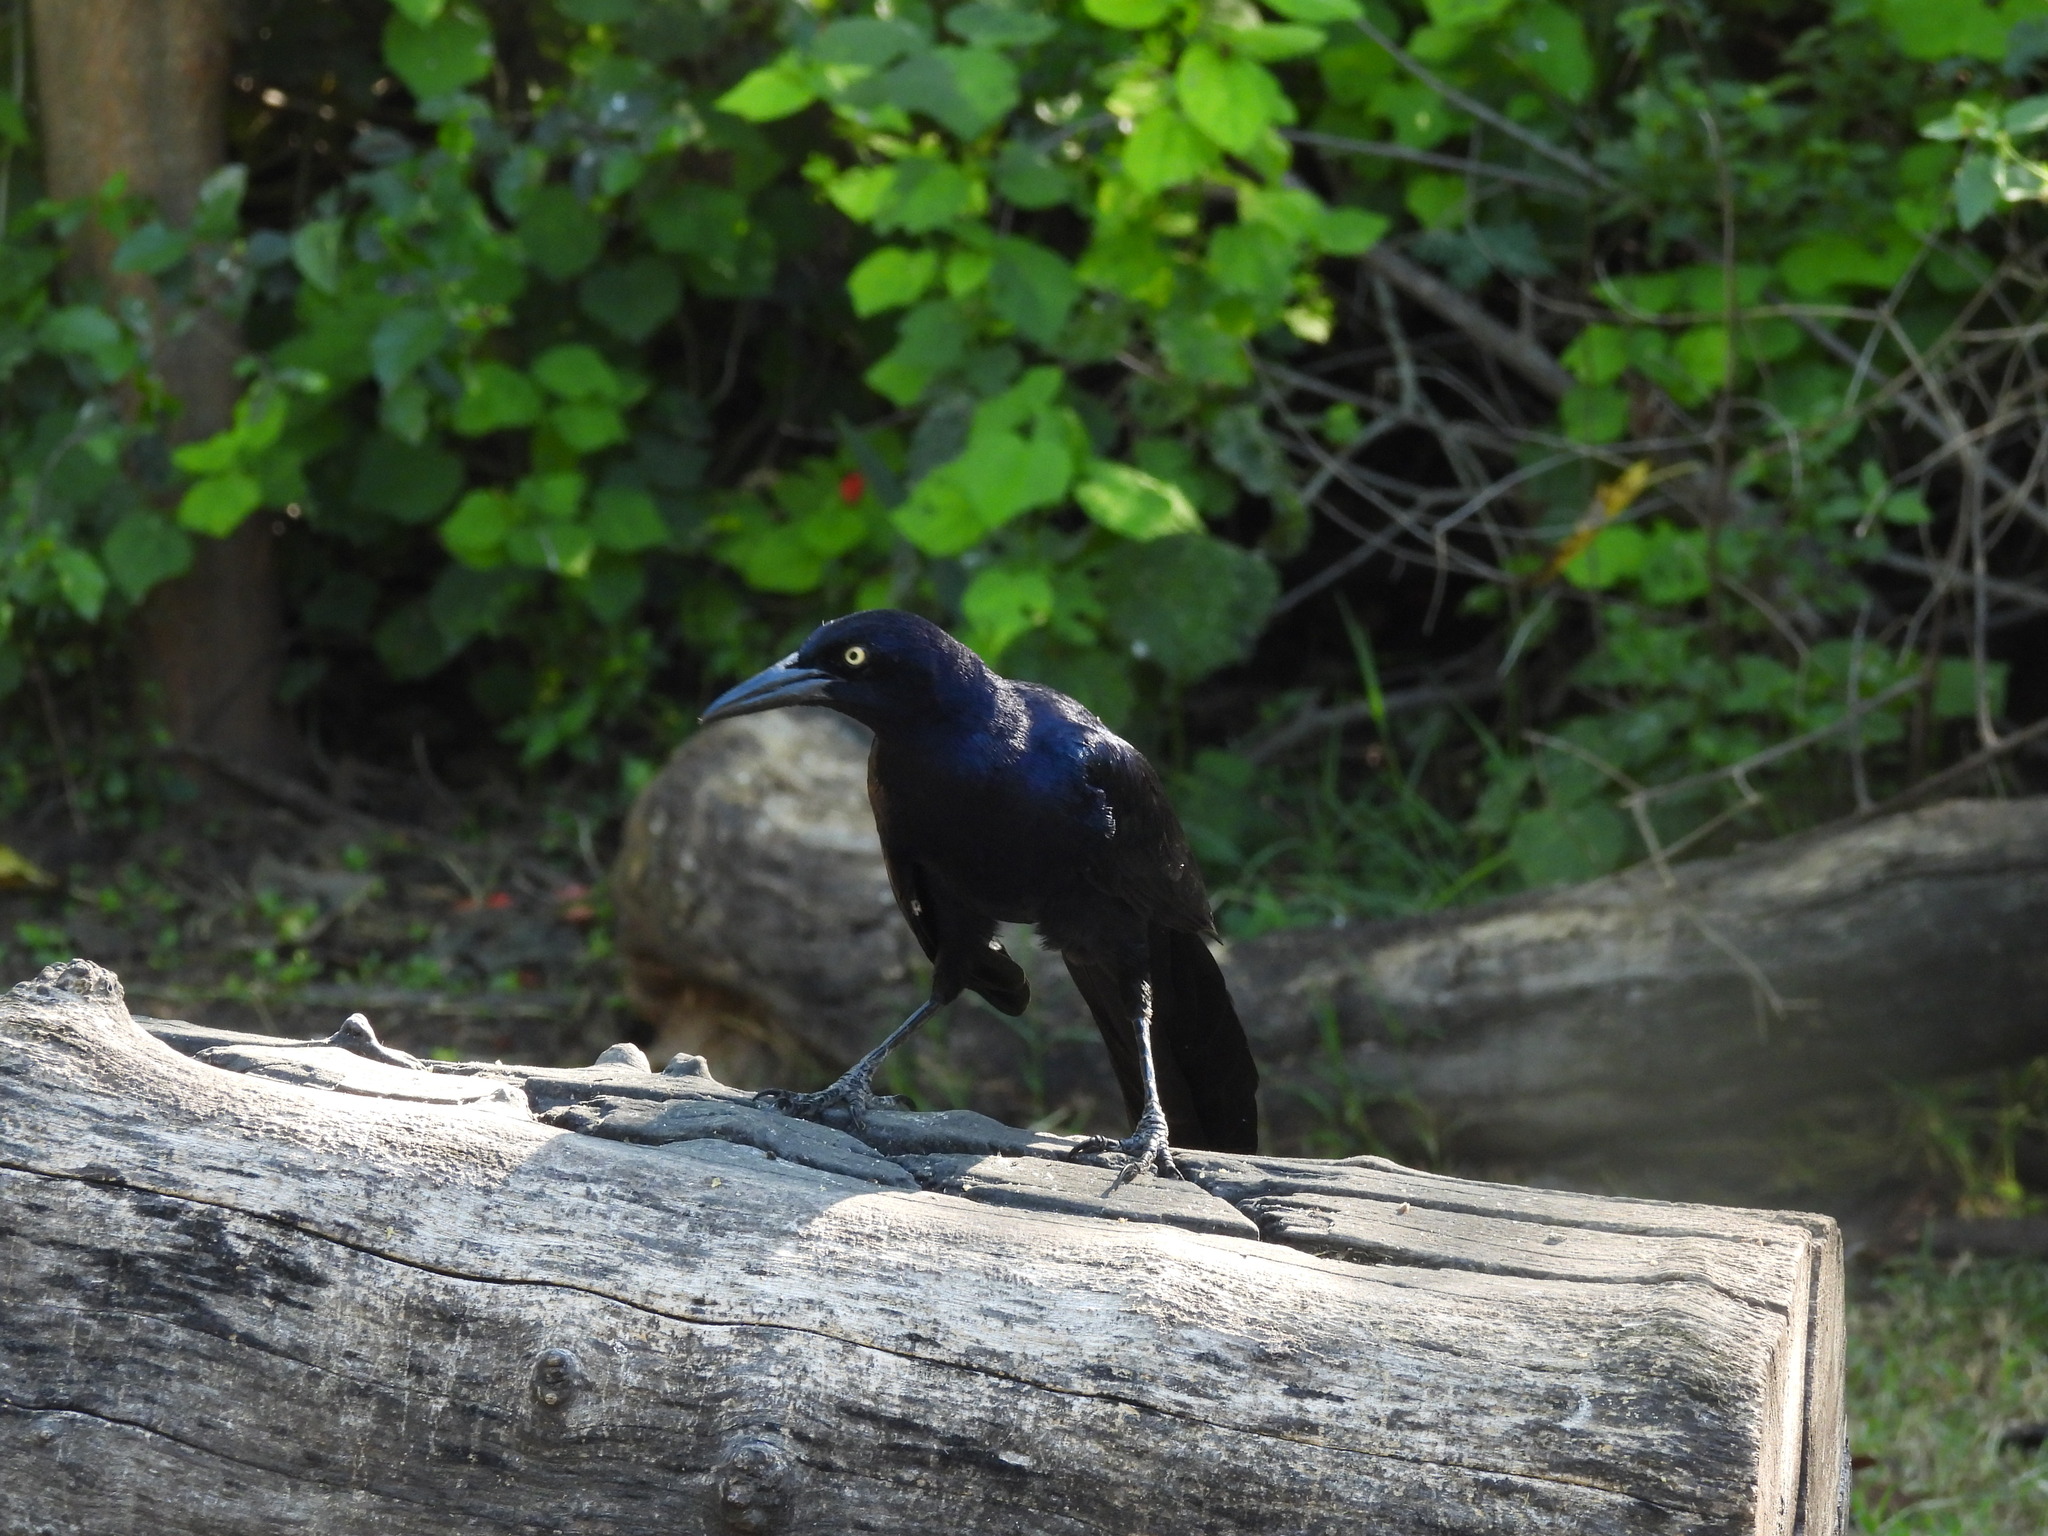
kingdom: Animalia
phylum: Chordata
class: Aves
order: Passeriformes
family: Icteridae
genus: Quiscalus
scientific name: Quiscalus mexicanus
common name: Great-tailed grackle
